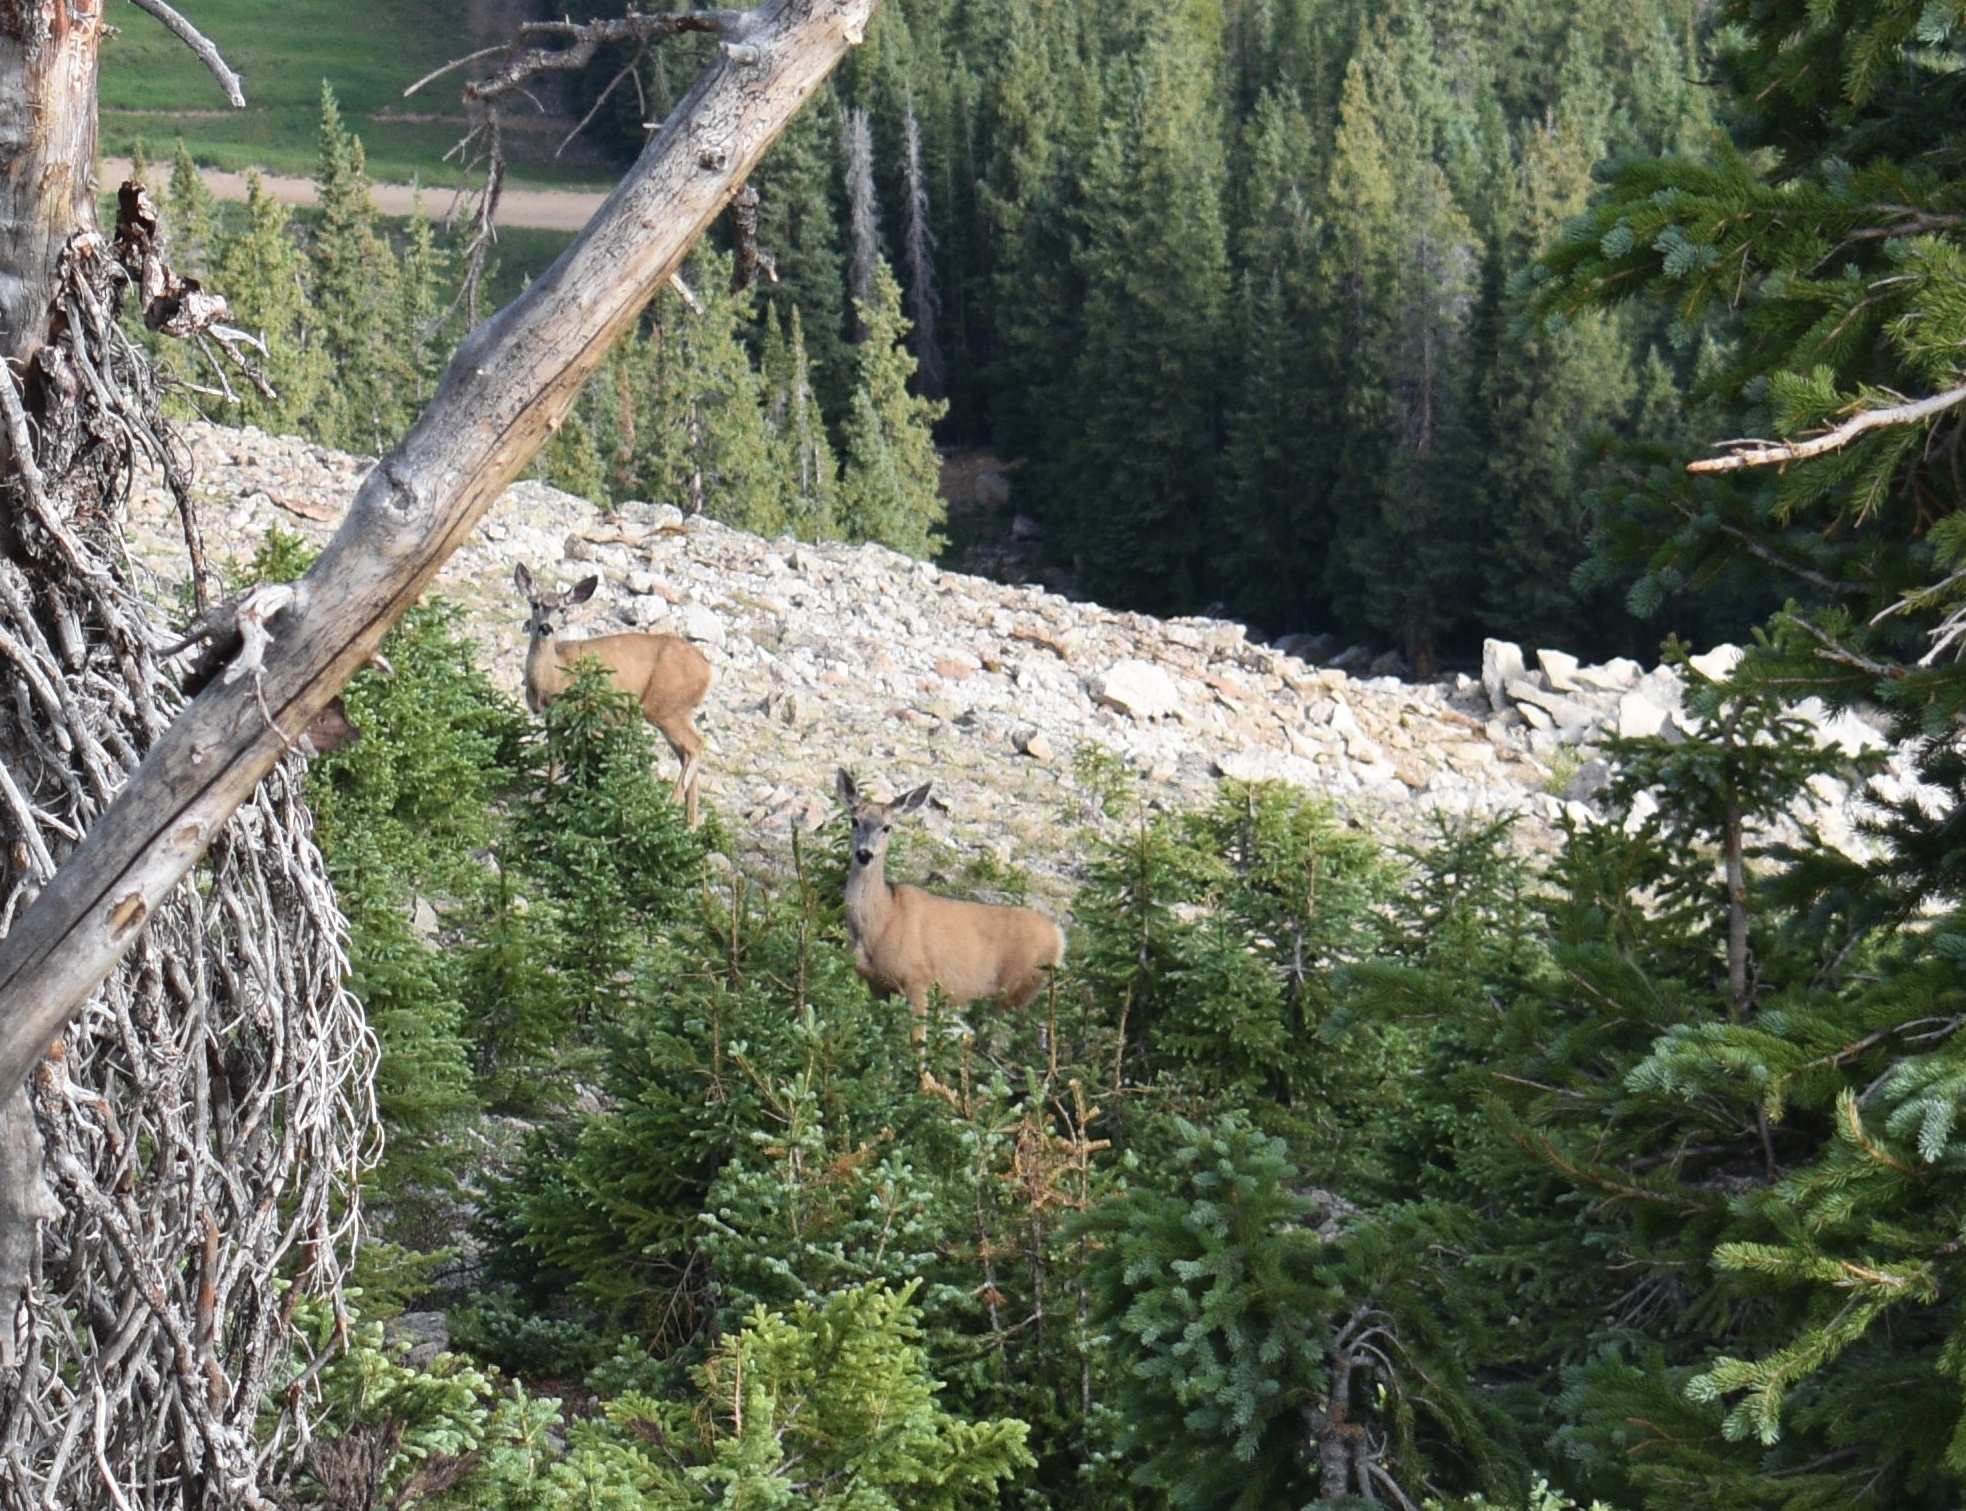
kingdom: Animalia
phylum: Chordata
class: Mammalia
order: Artiodactyla
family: Cervidae
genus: Odocoileus
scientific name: Odocoileus hemionus
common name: Mule deer
